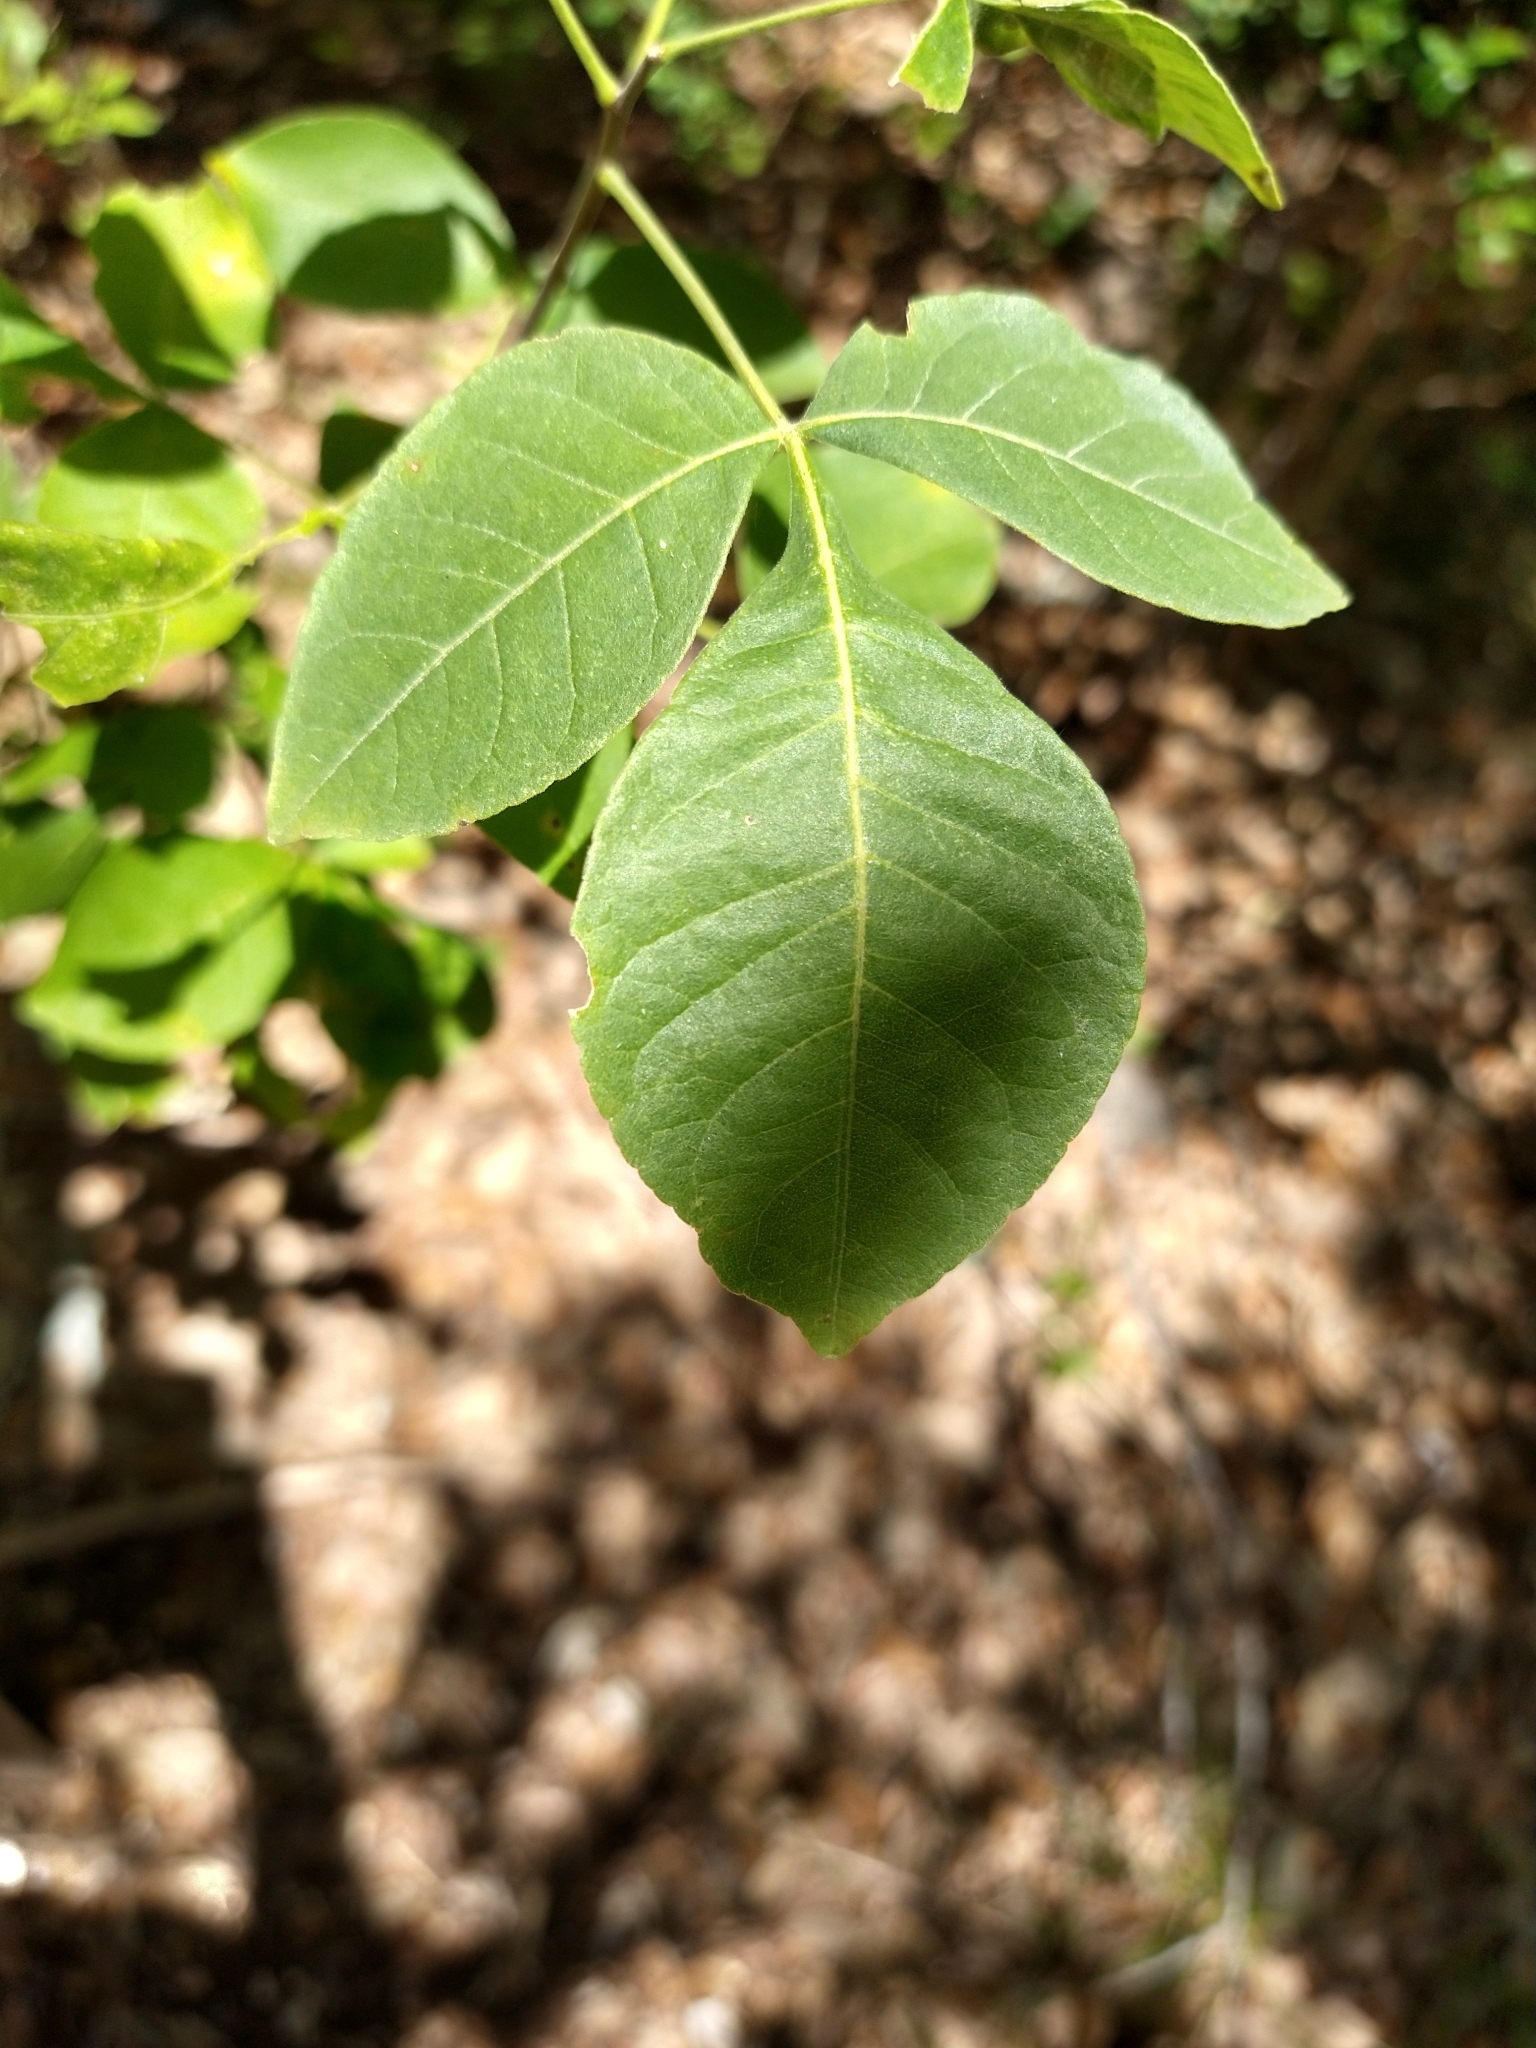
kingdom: Plantae
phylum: Tracheophyta
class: Magnoliopsida
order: Sapindales
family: Rutaceae
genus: Ptelea
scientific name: Ptelea trifoliata
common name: Common hop-tree
